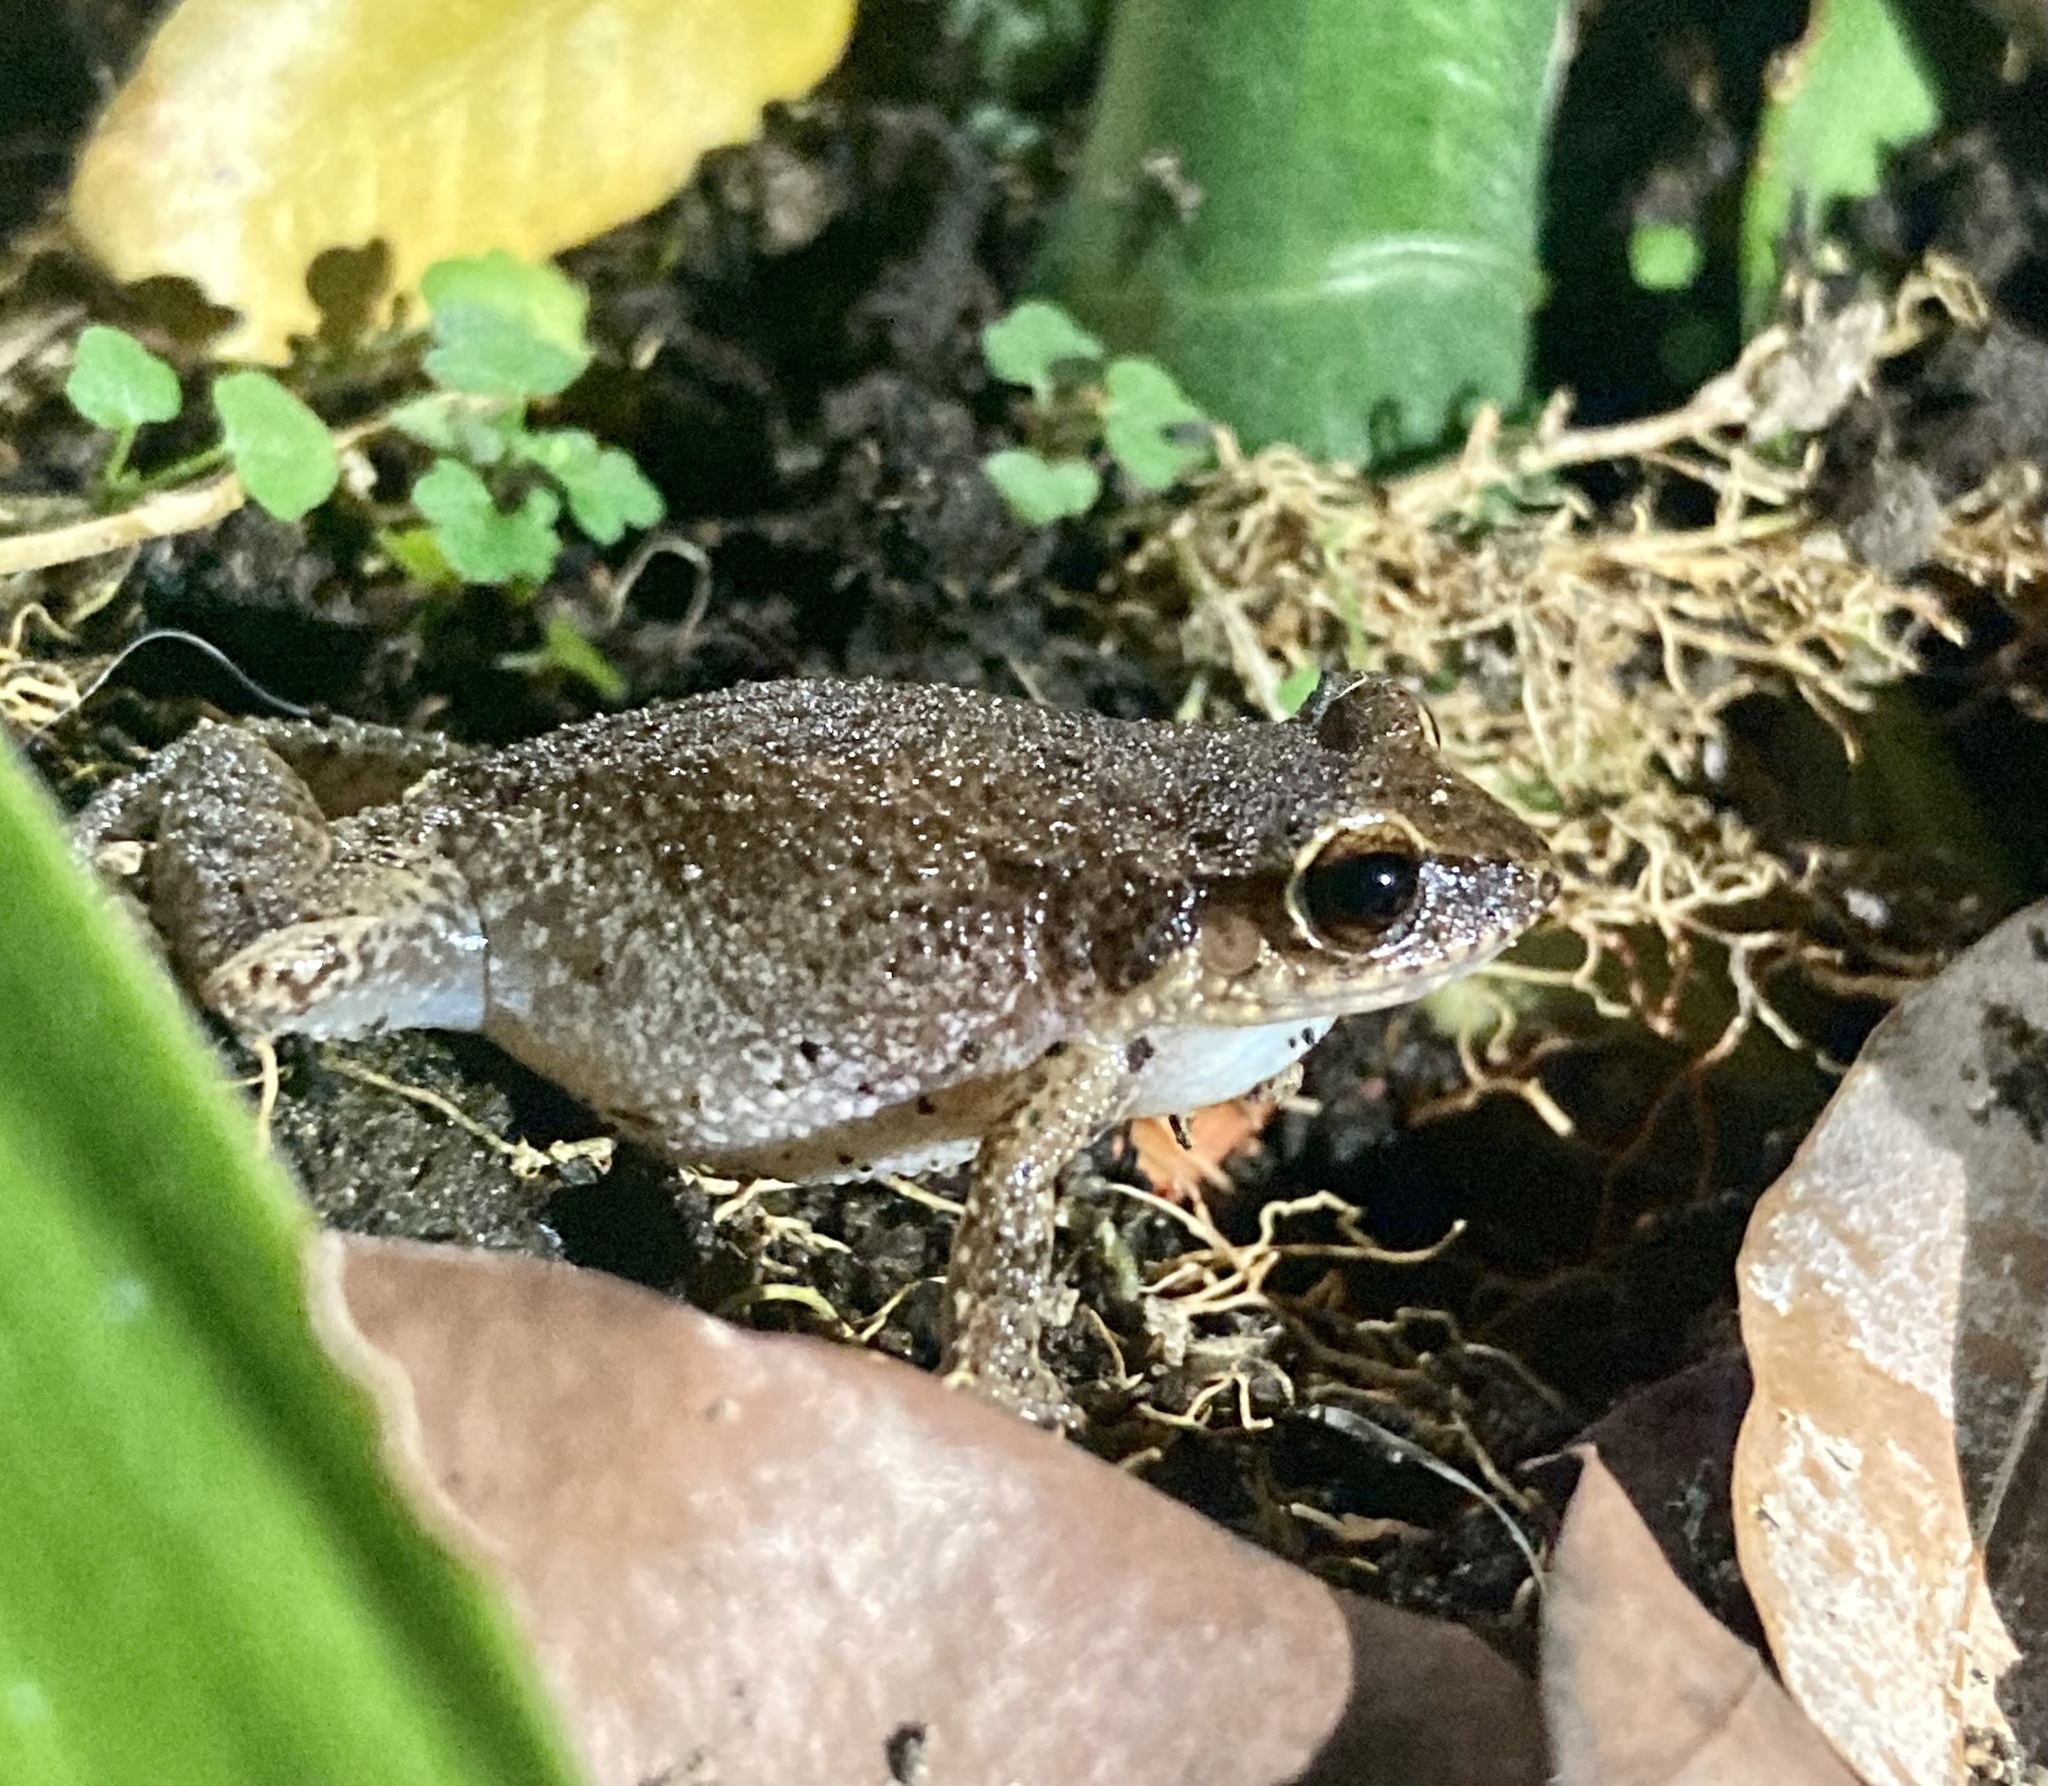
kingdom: Animalia
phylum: Chordata
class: Amphibia
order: Anura
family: Eleutherodactylidae
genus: Eleutherodactylus
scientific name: Eleutherodactylus johnstonei
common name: Johnstone's robber frog
